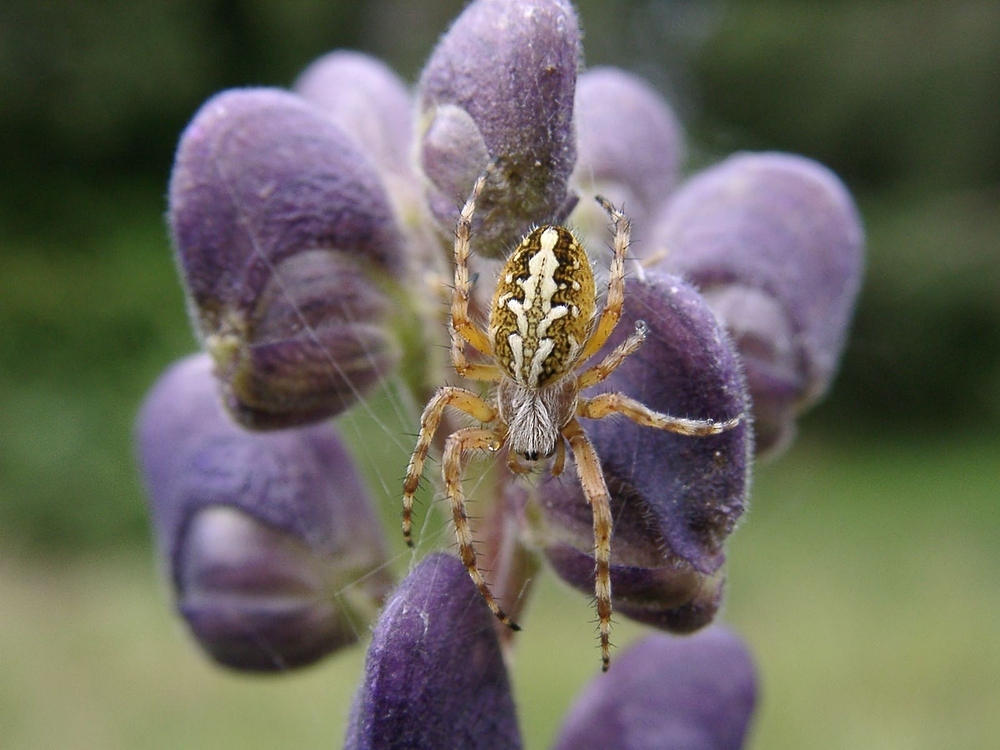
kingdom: Animalia
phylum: Arthropoda
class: Arachnida
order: Araneae
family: Araneidae
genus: Aculepeira
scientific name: Aculepeira ceropegia
